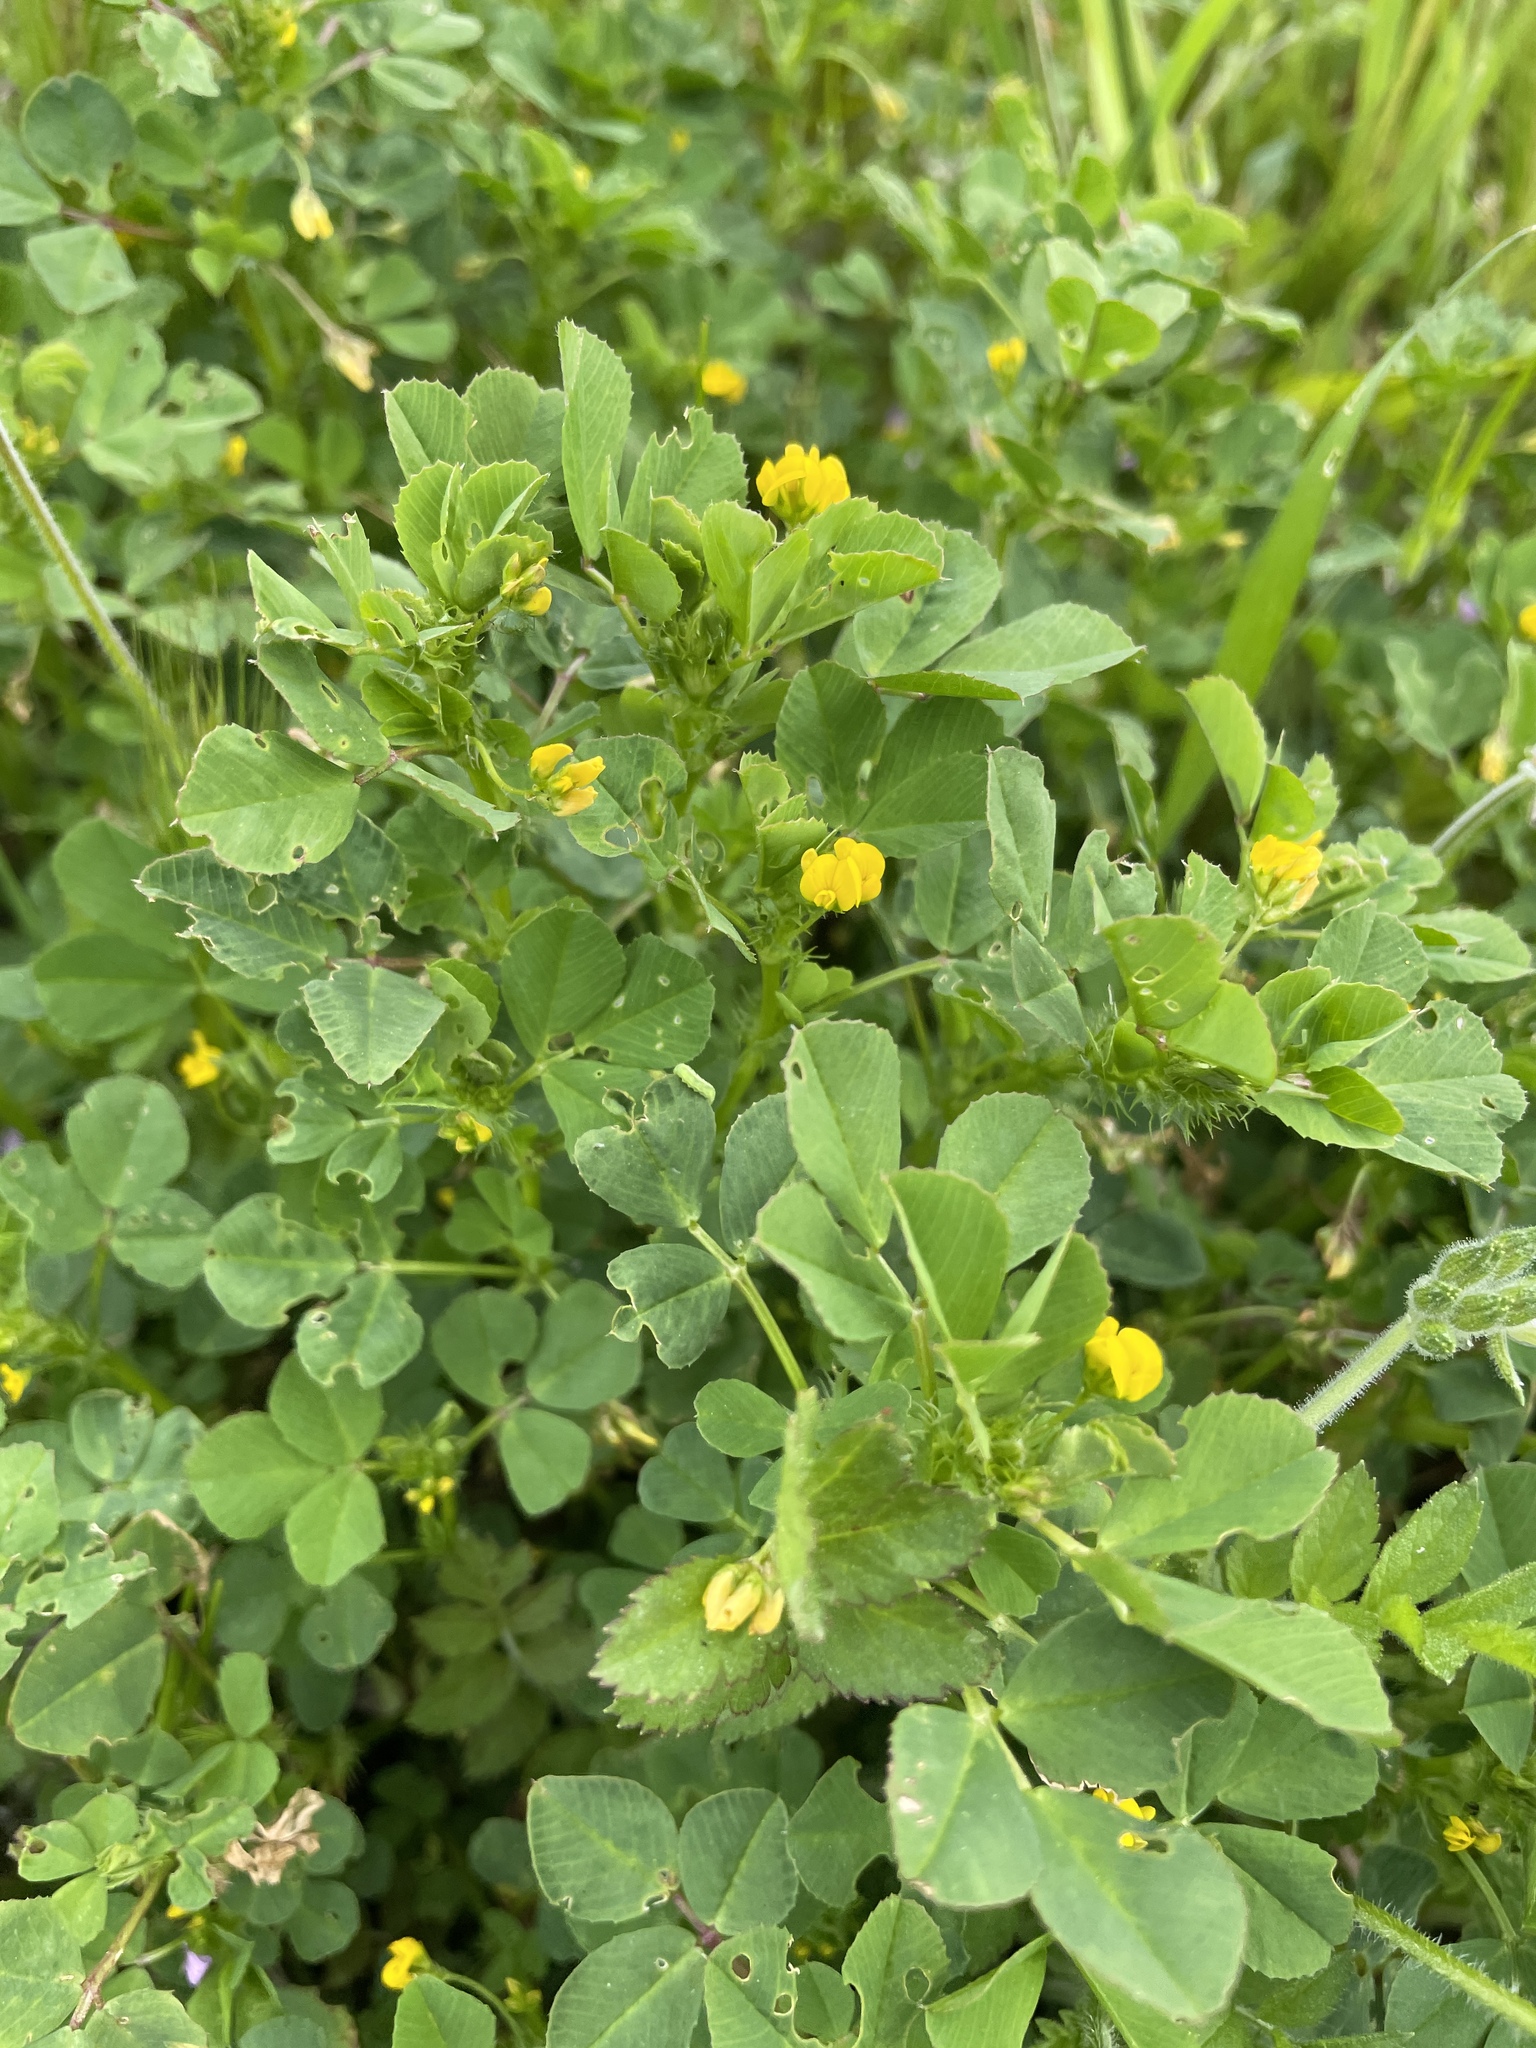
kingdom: Plantae
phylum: Tracheophyta
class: Magnoliopsida
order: Fabales
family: Fabaceae
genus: Medicago
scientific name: Medicago polymorpha
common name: Burclover
